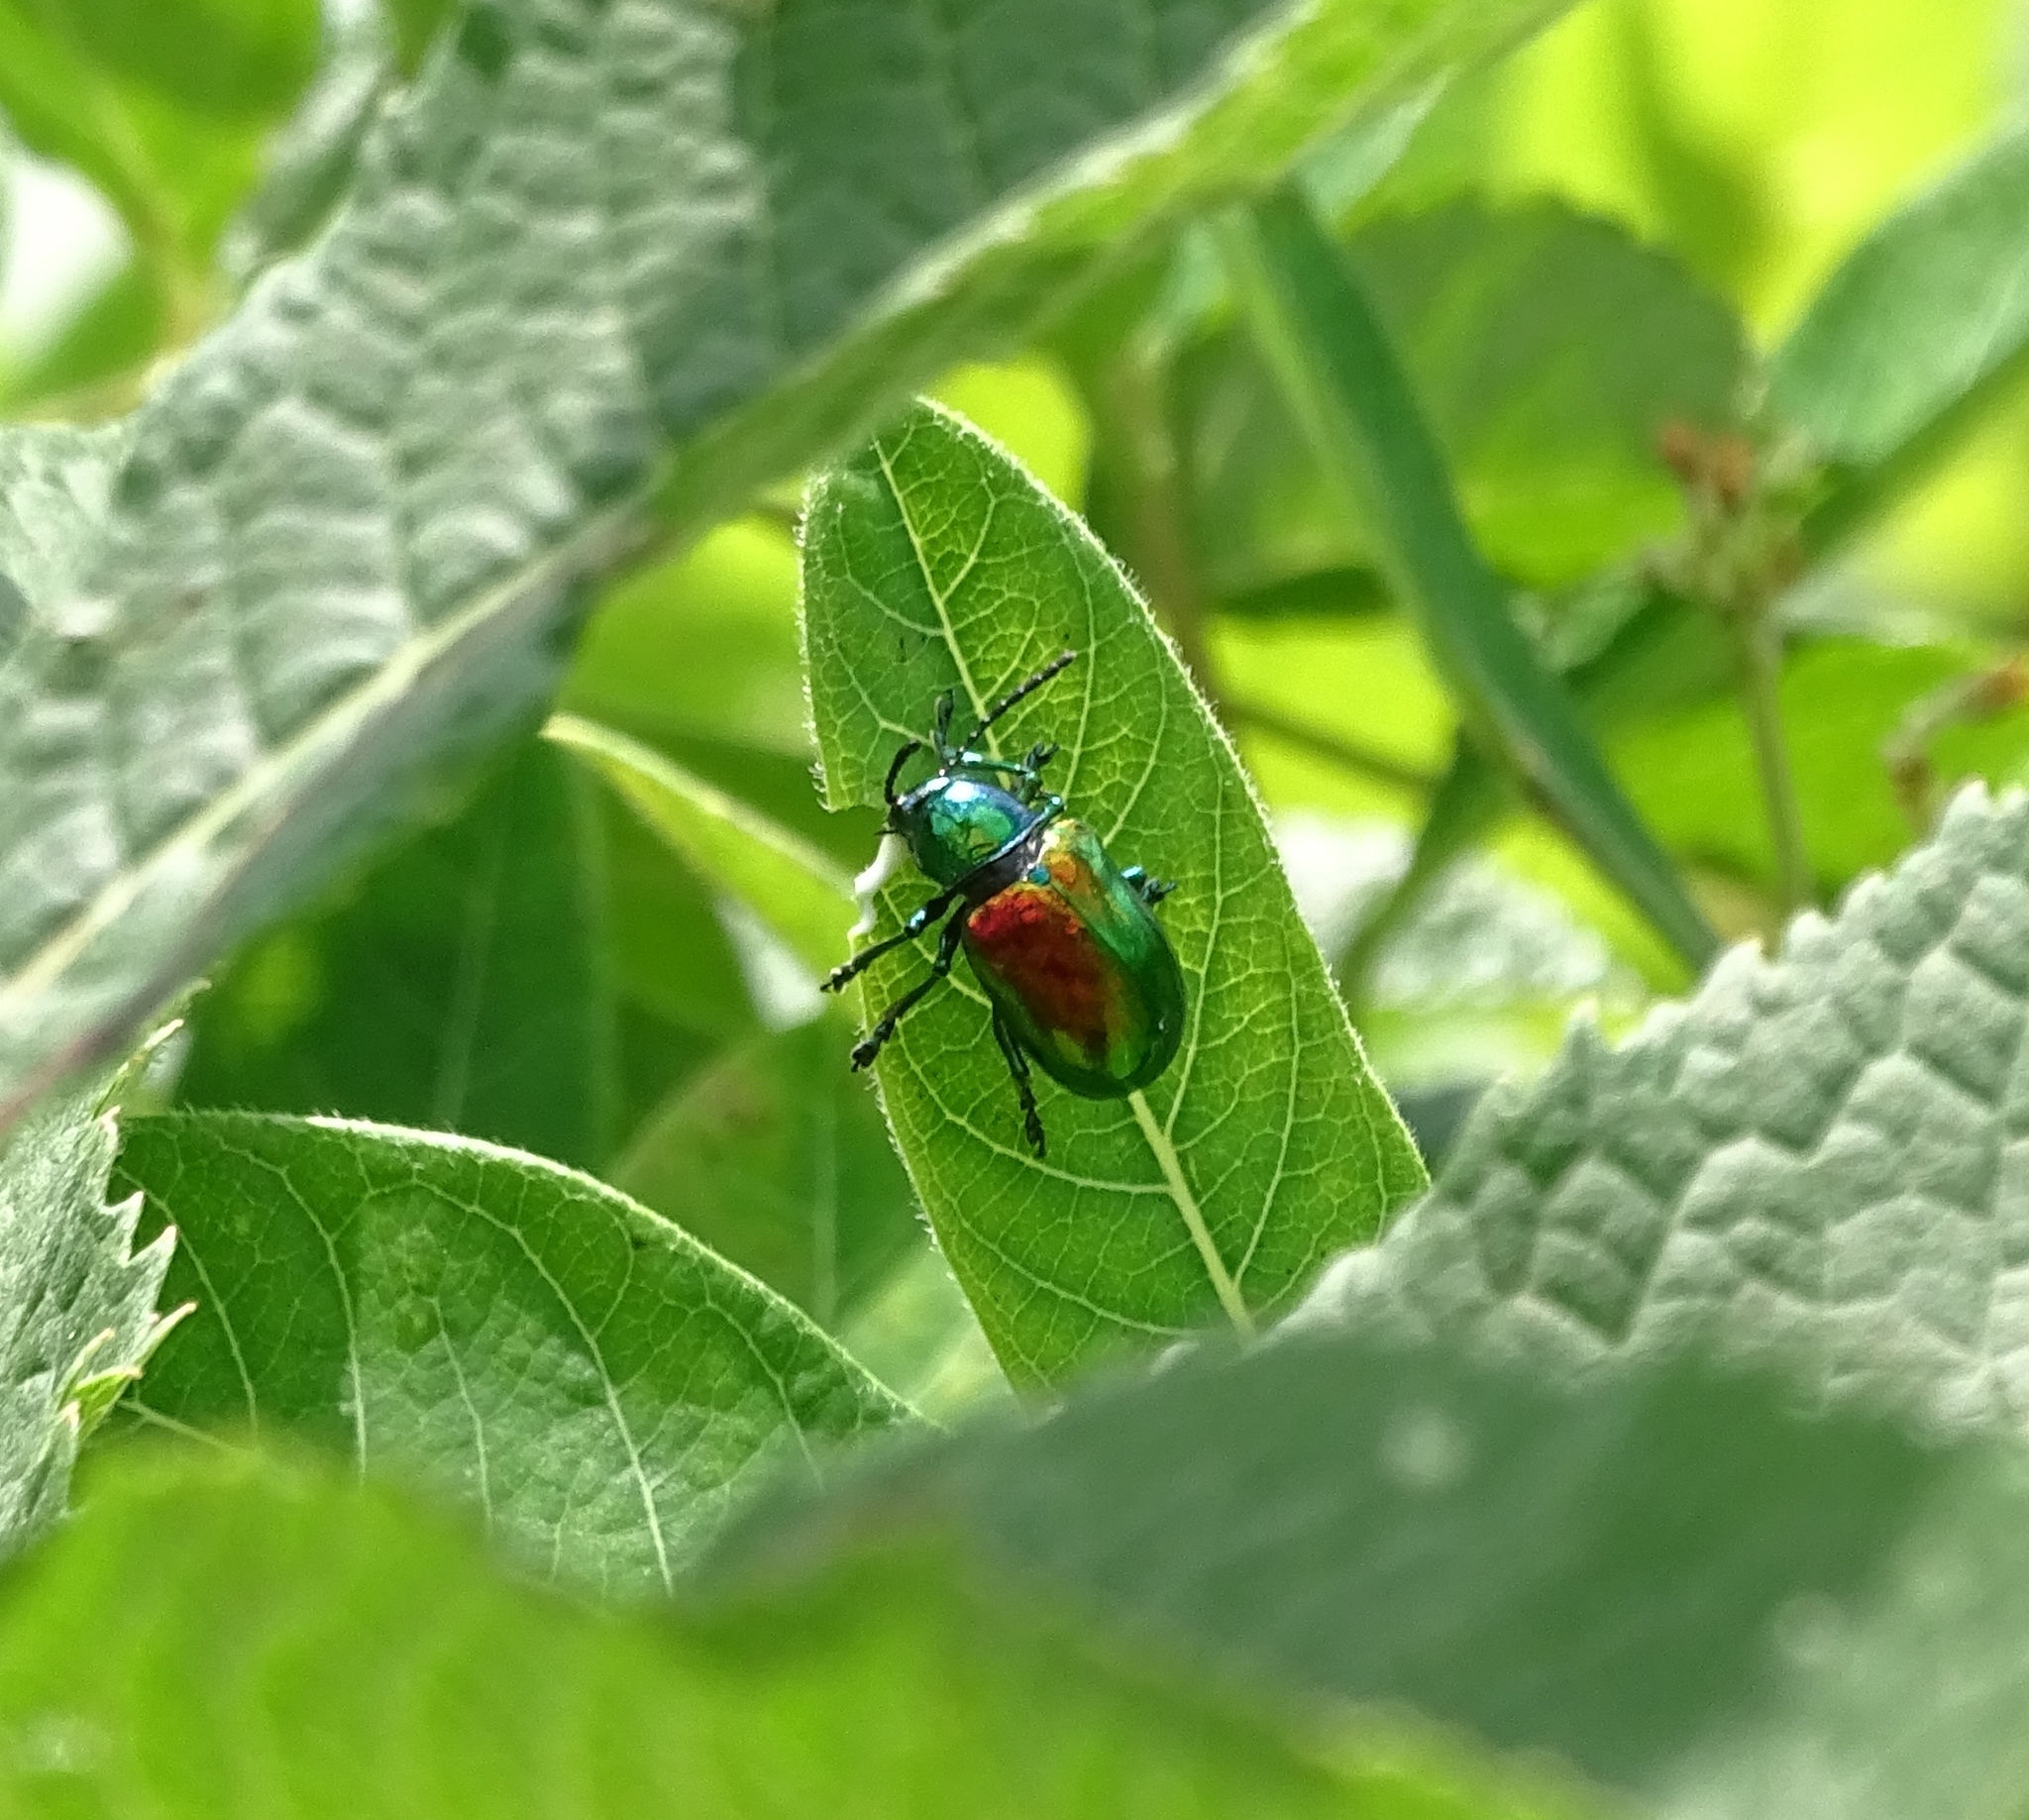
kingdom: Animalia
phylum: Arthropoda
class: Insecta
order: Coleoptera
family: Chrysomelidae
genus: Chrysochus
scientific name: Chrysochus auratus
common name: Dogbane leaf beetle
